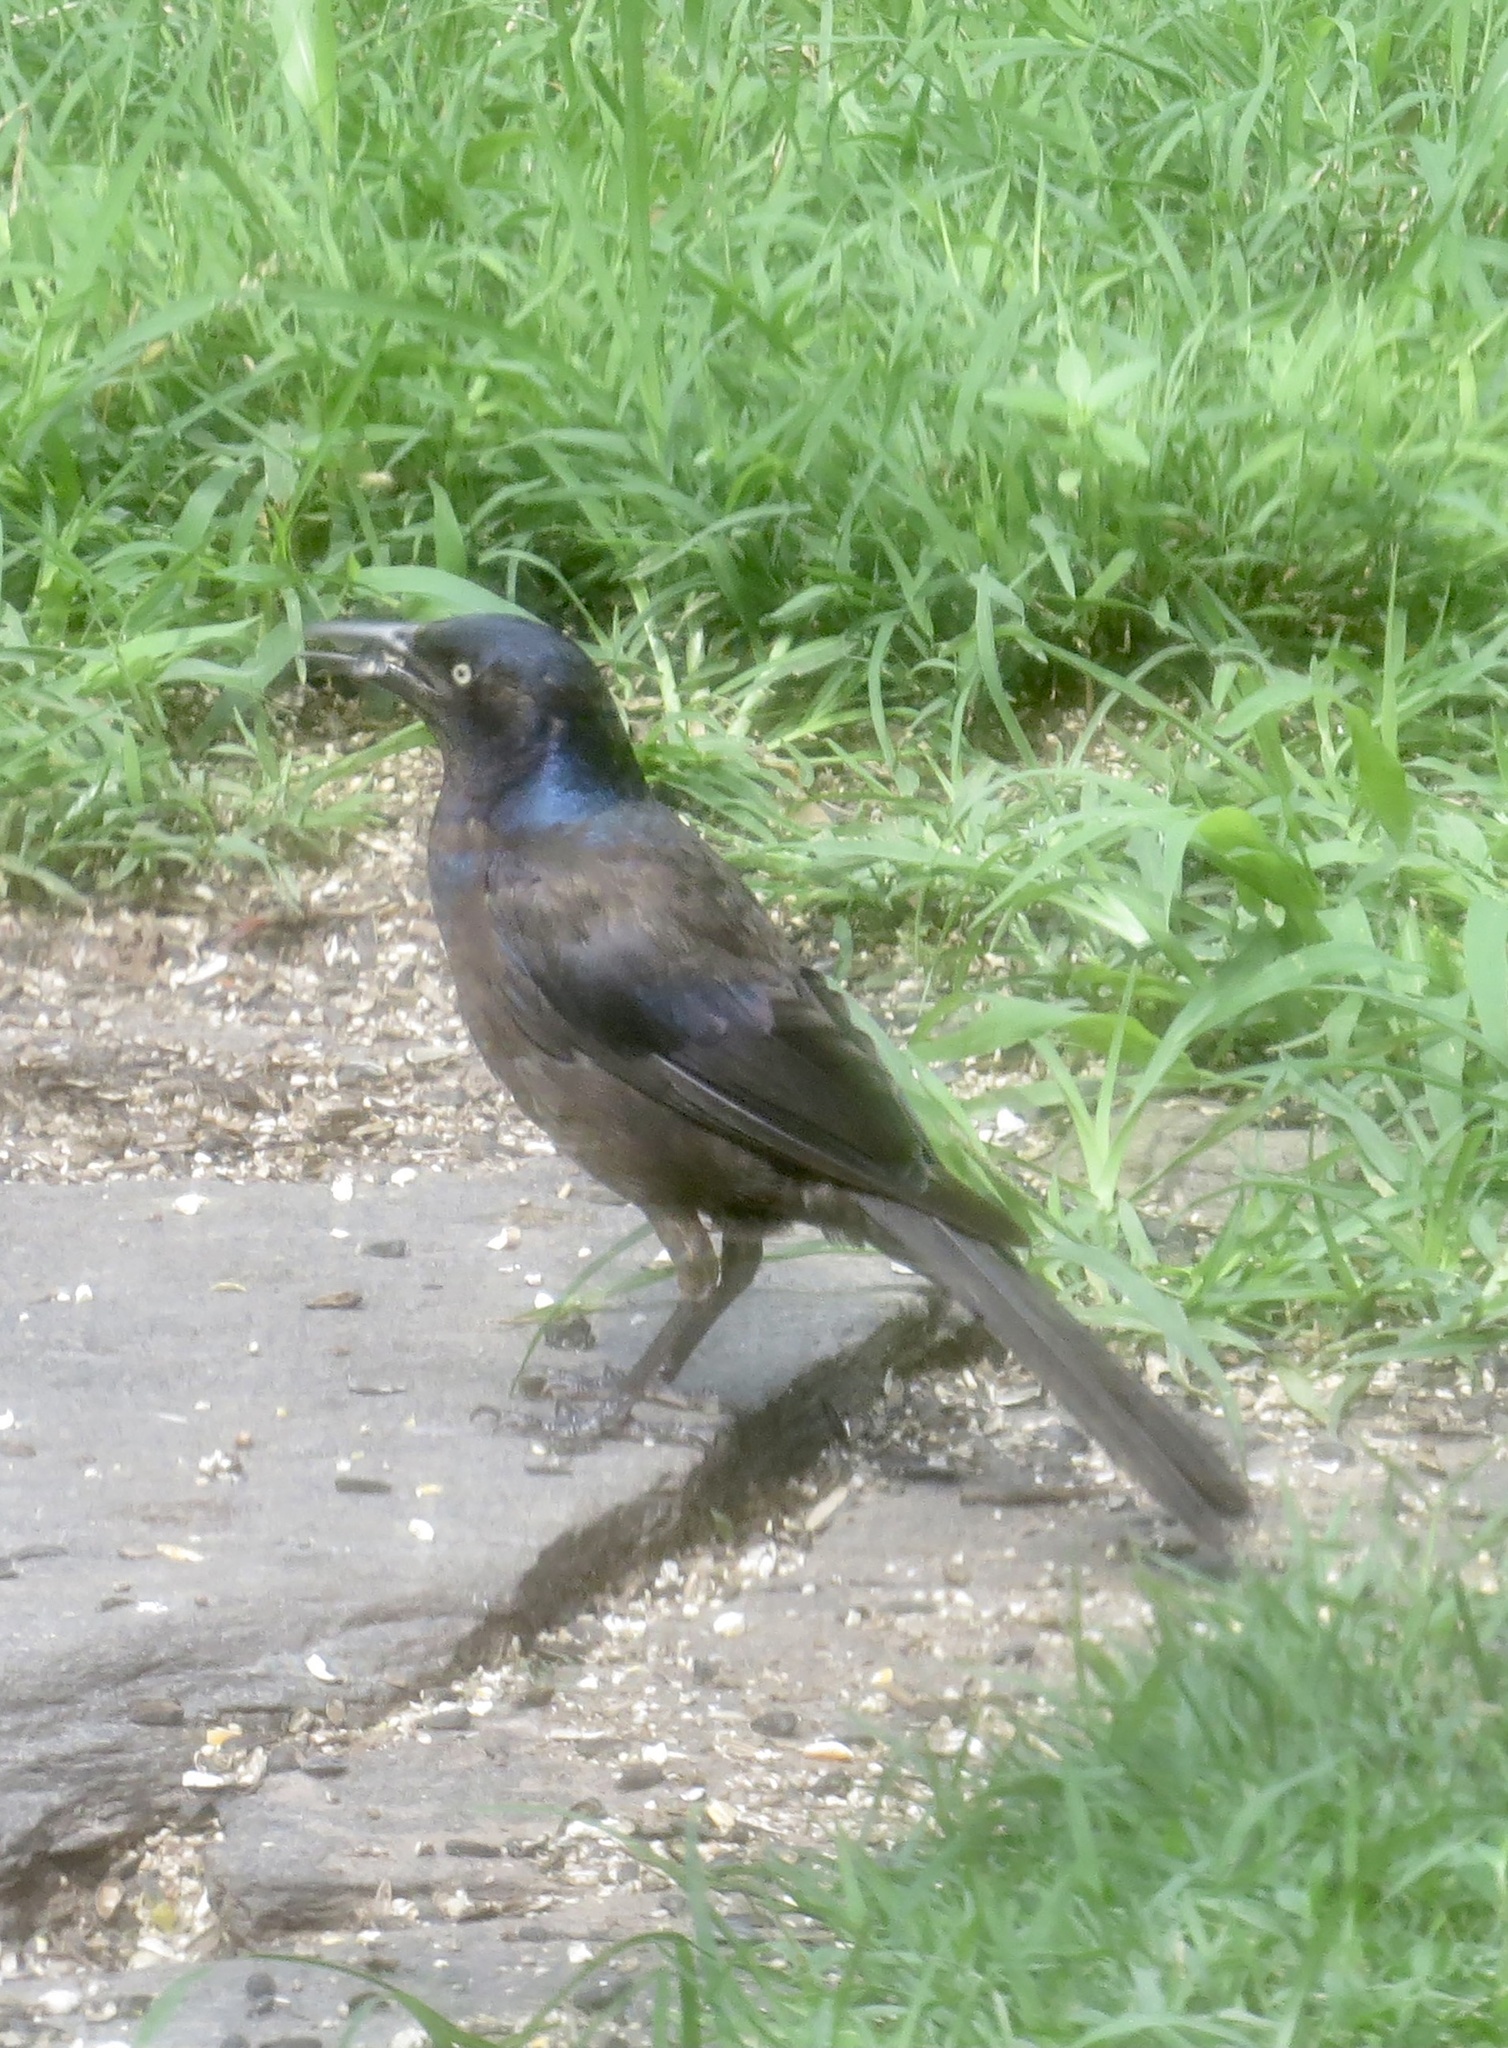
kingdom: Animalia
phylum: Chordata
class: Aves
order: Passeriformes
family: Icteridae
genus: Quiscalus
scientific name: Quiscalus quiscula
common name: Common grackle
